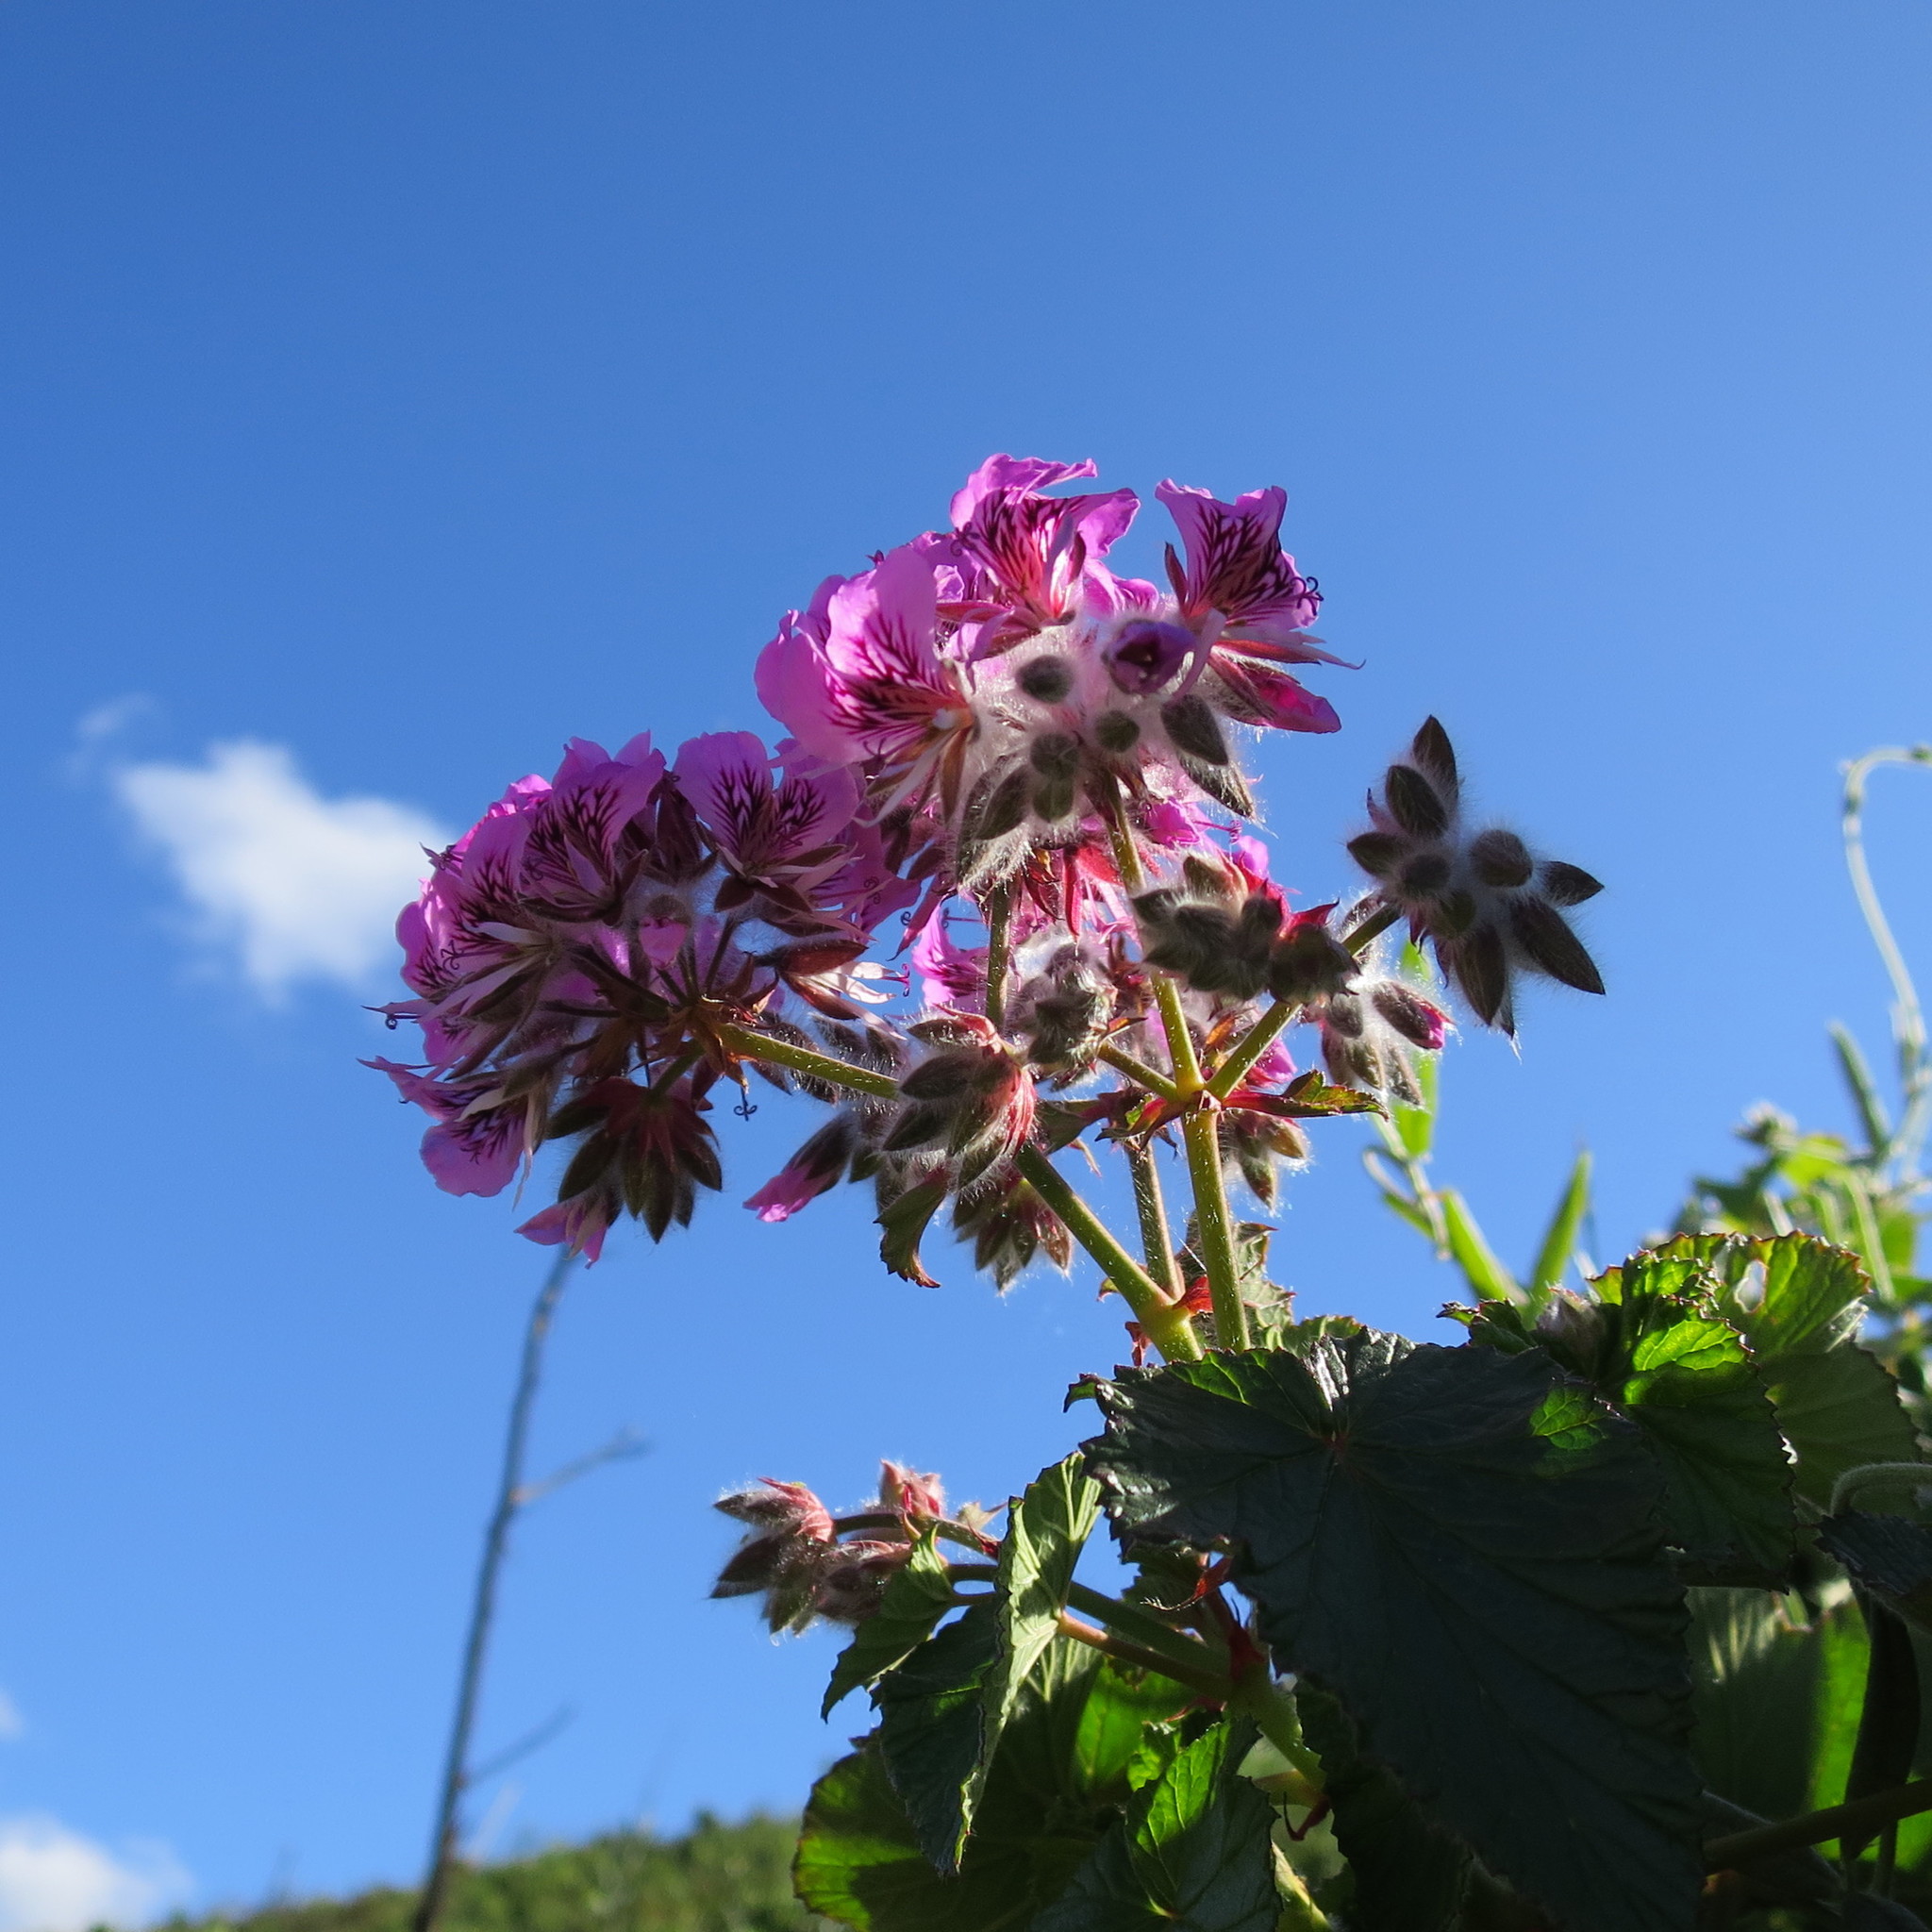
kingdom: Plantae
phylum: Tracheophyta
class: Magnoliopsida
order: Geraniales
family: Geraniaceae
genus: Pelargonium
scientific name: Pelargonium cordifolium
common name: Heart-leaf pelargonium
